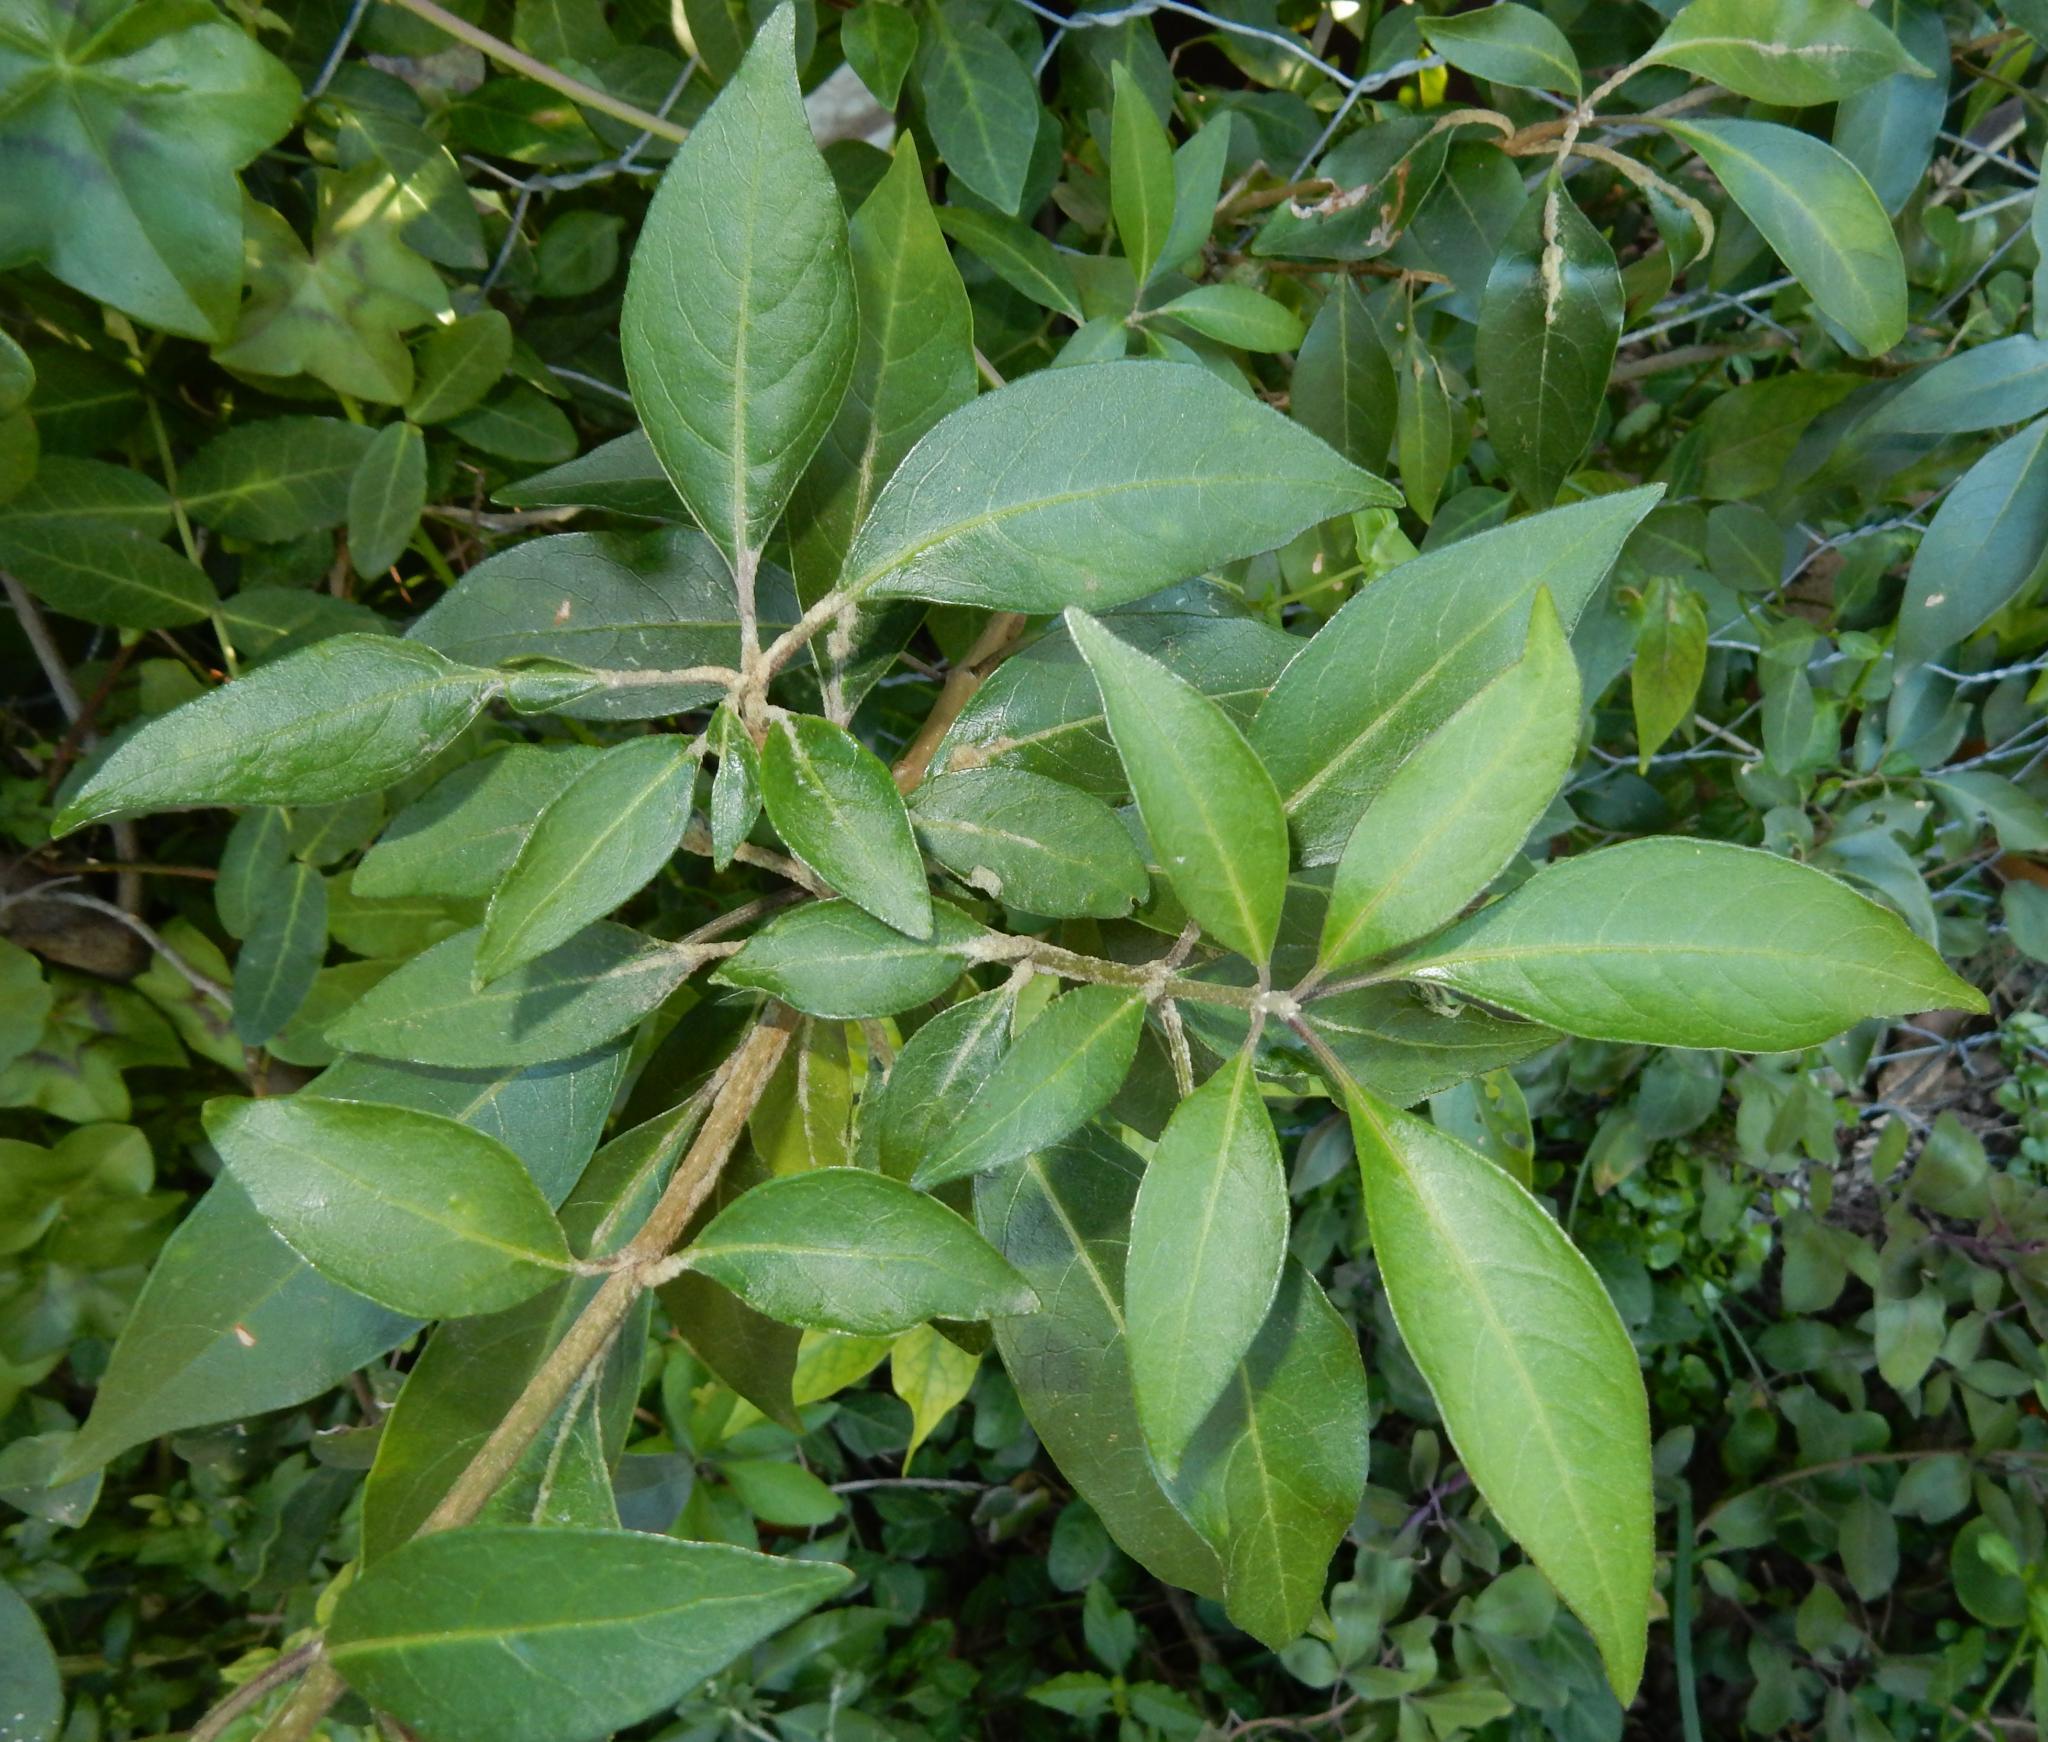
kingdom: Plantae
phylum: Tracheophyta
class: Magnoliopsida
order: Lamiales
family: Lamiaceae
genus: Volkameria
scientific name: Volkameria glabra
